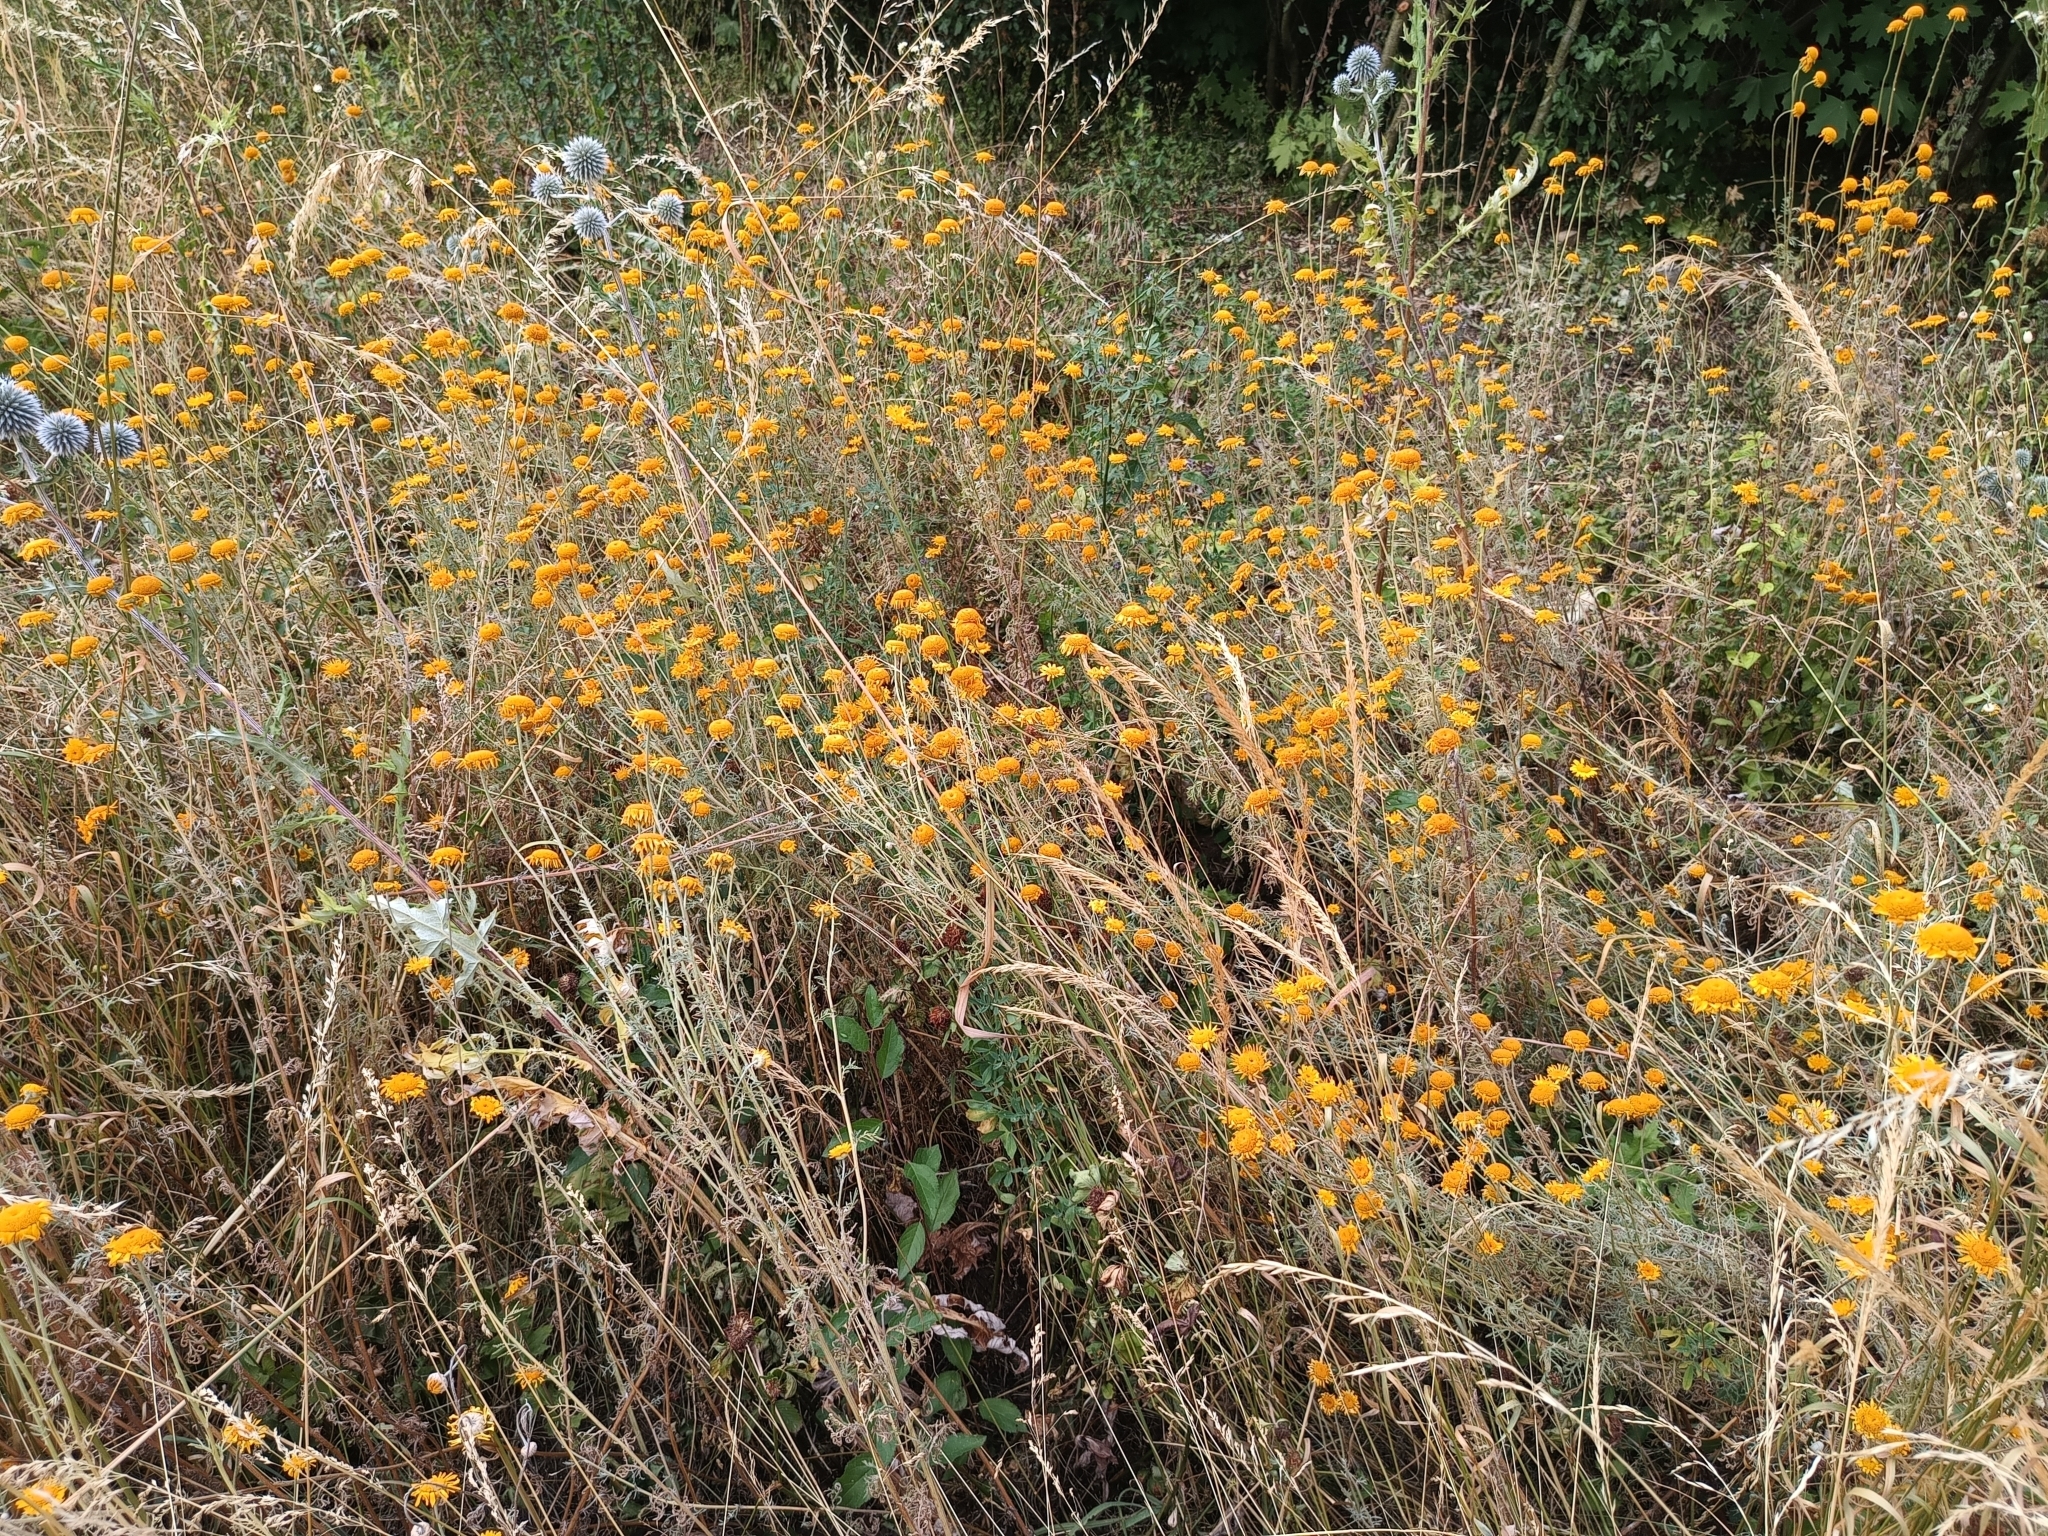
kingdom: Plantae
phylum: Tracheophyta
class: Magnoliopsida
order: Asterales
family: Asteraceae
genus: Cota
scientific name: Cota tinctoria
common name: Golden chamomile
